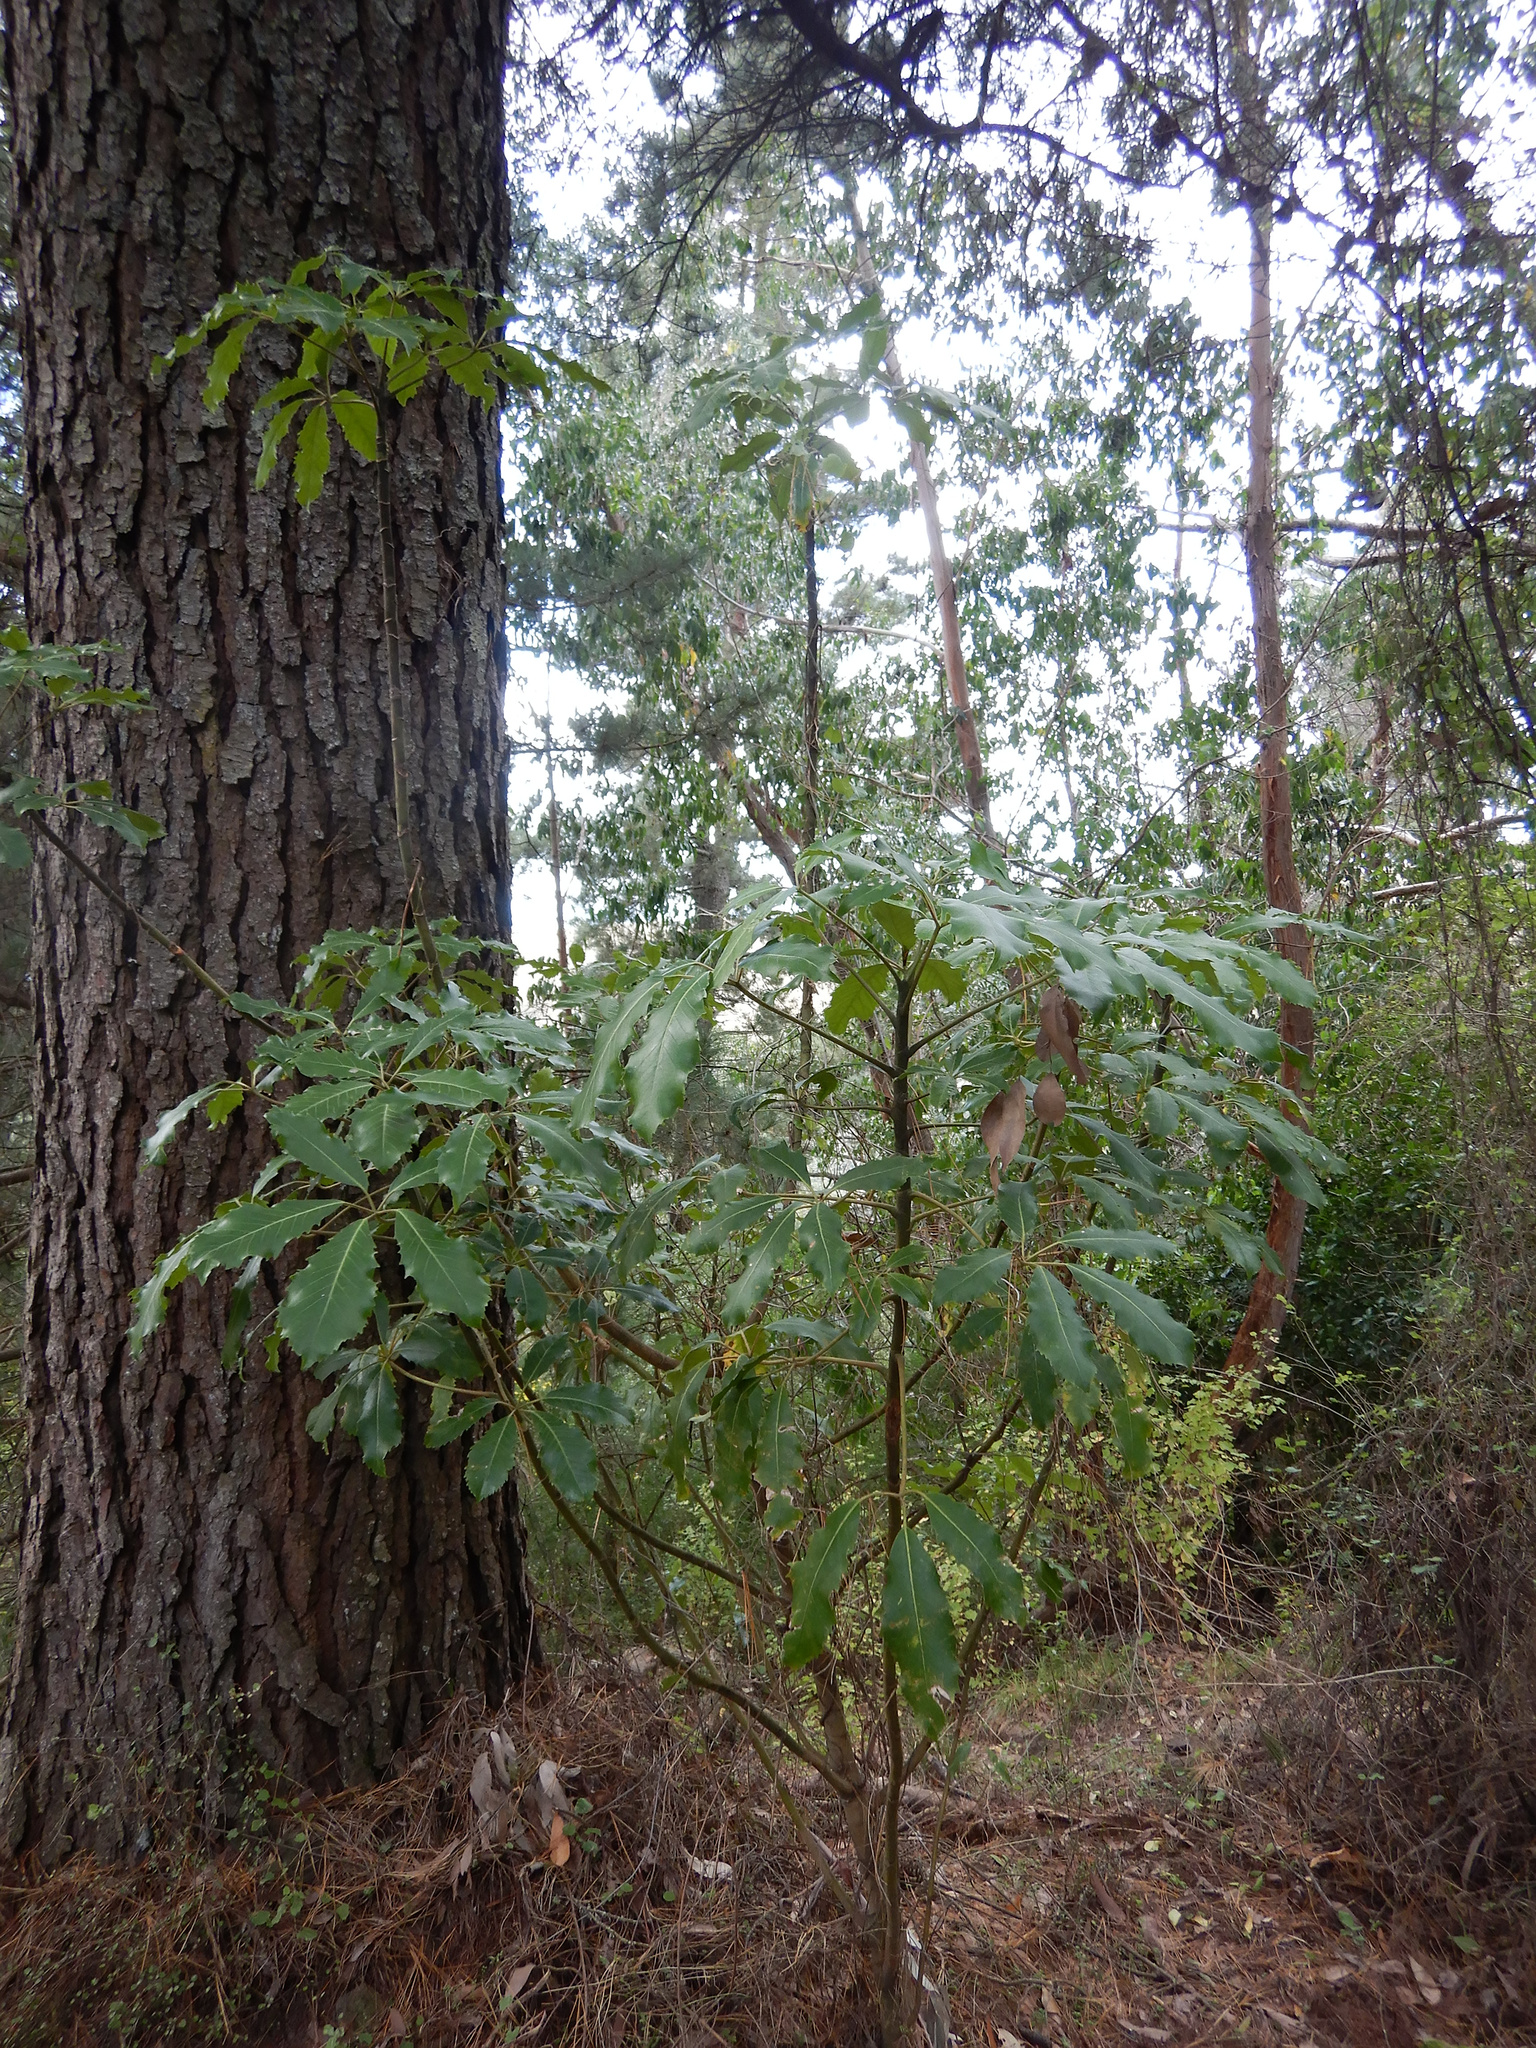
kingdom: Plantae
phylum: Tracheophyta
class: Magnoliopsida
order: Apiales
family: Araliaceae
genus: Neopanax
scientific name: Neopanax arboreus
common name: Five-fingers
